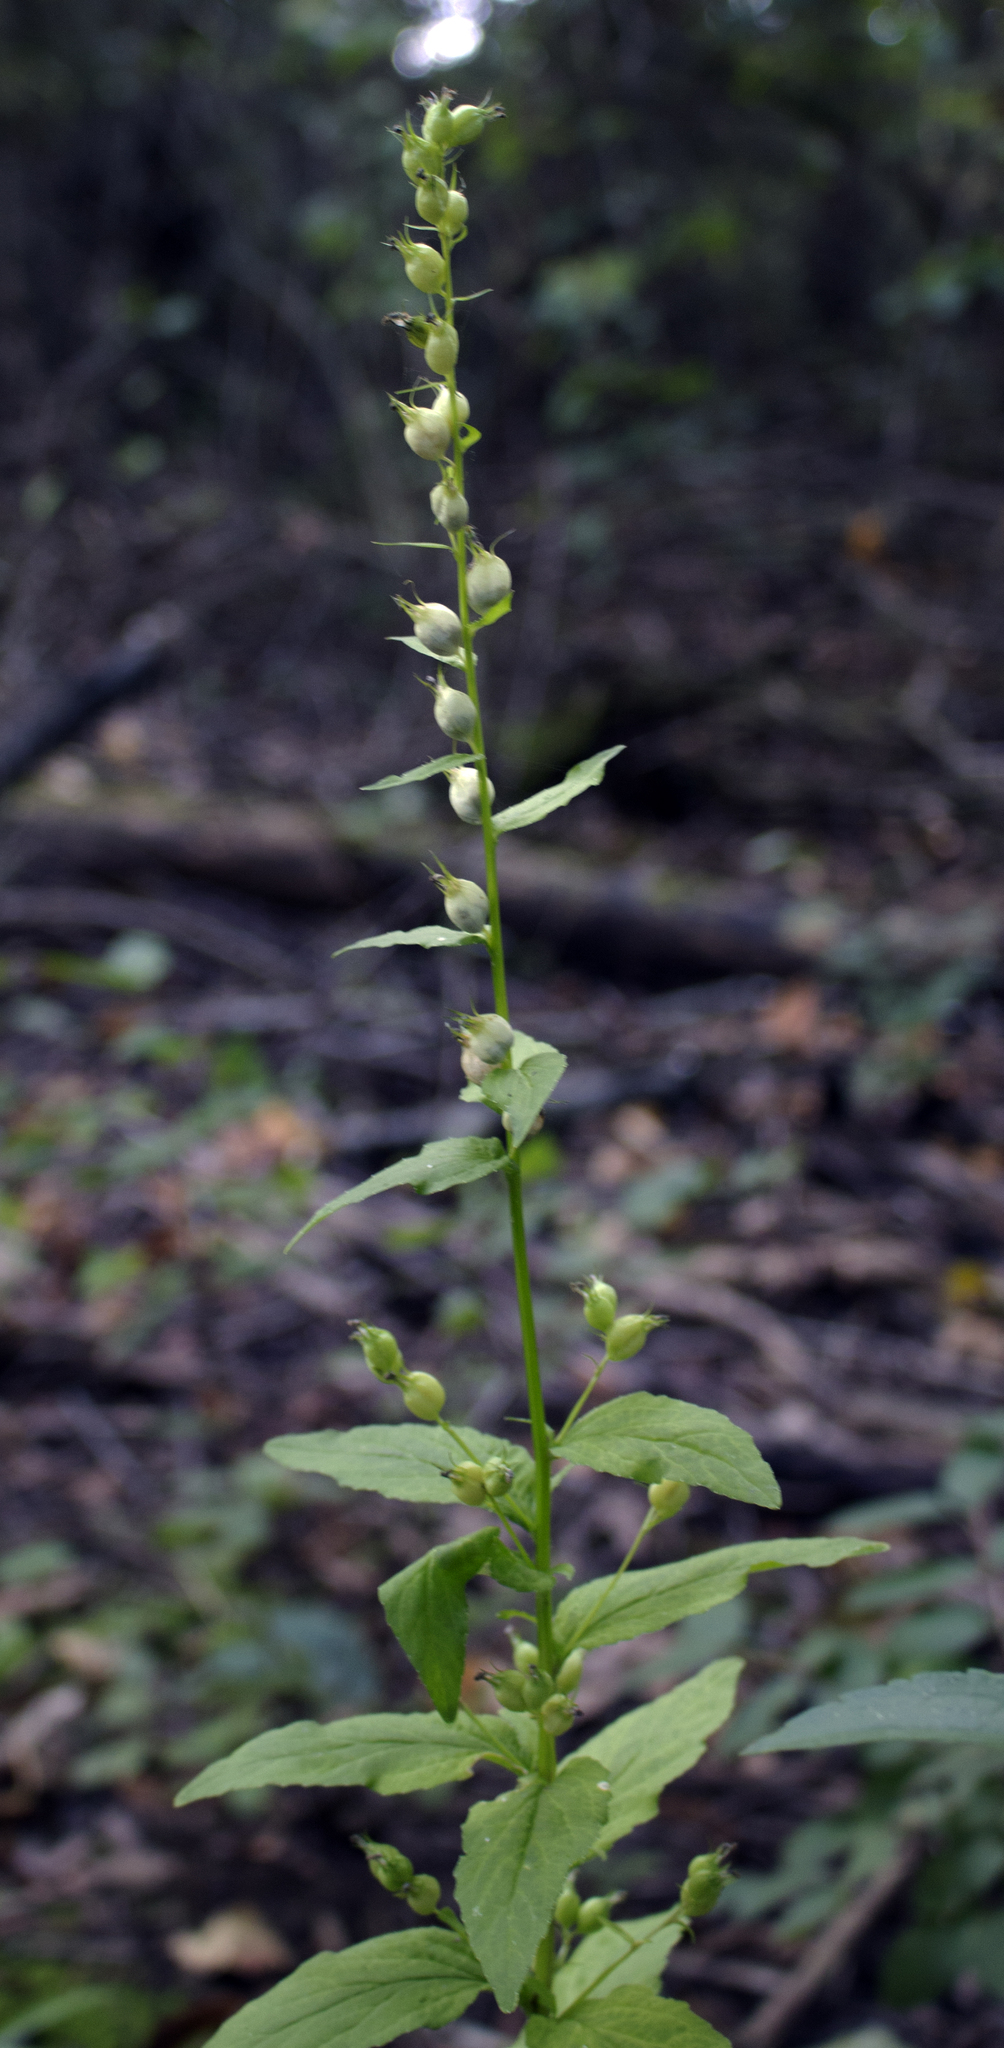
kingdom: Plantae
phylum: Tracheophyta
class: Magnoliopsida
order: Asterales
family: Campanulaceae
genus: Lobelia
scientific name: Lobelia inflata
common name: Indian tobacco
